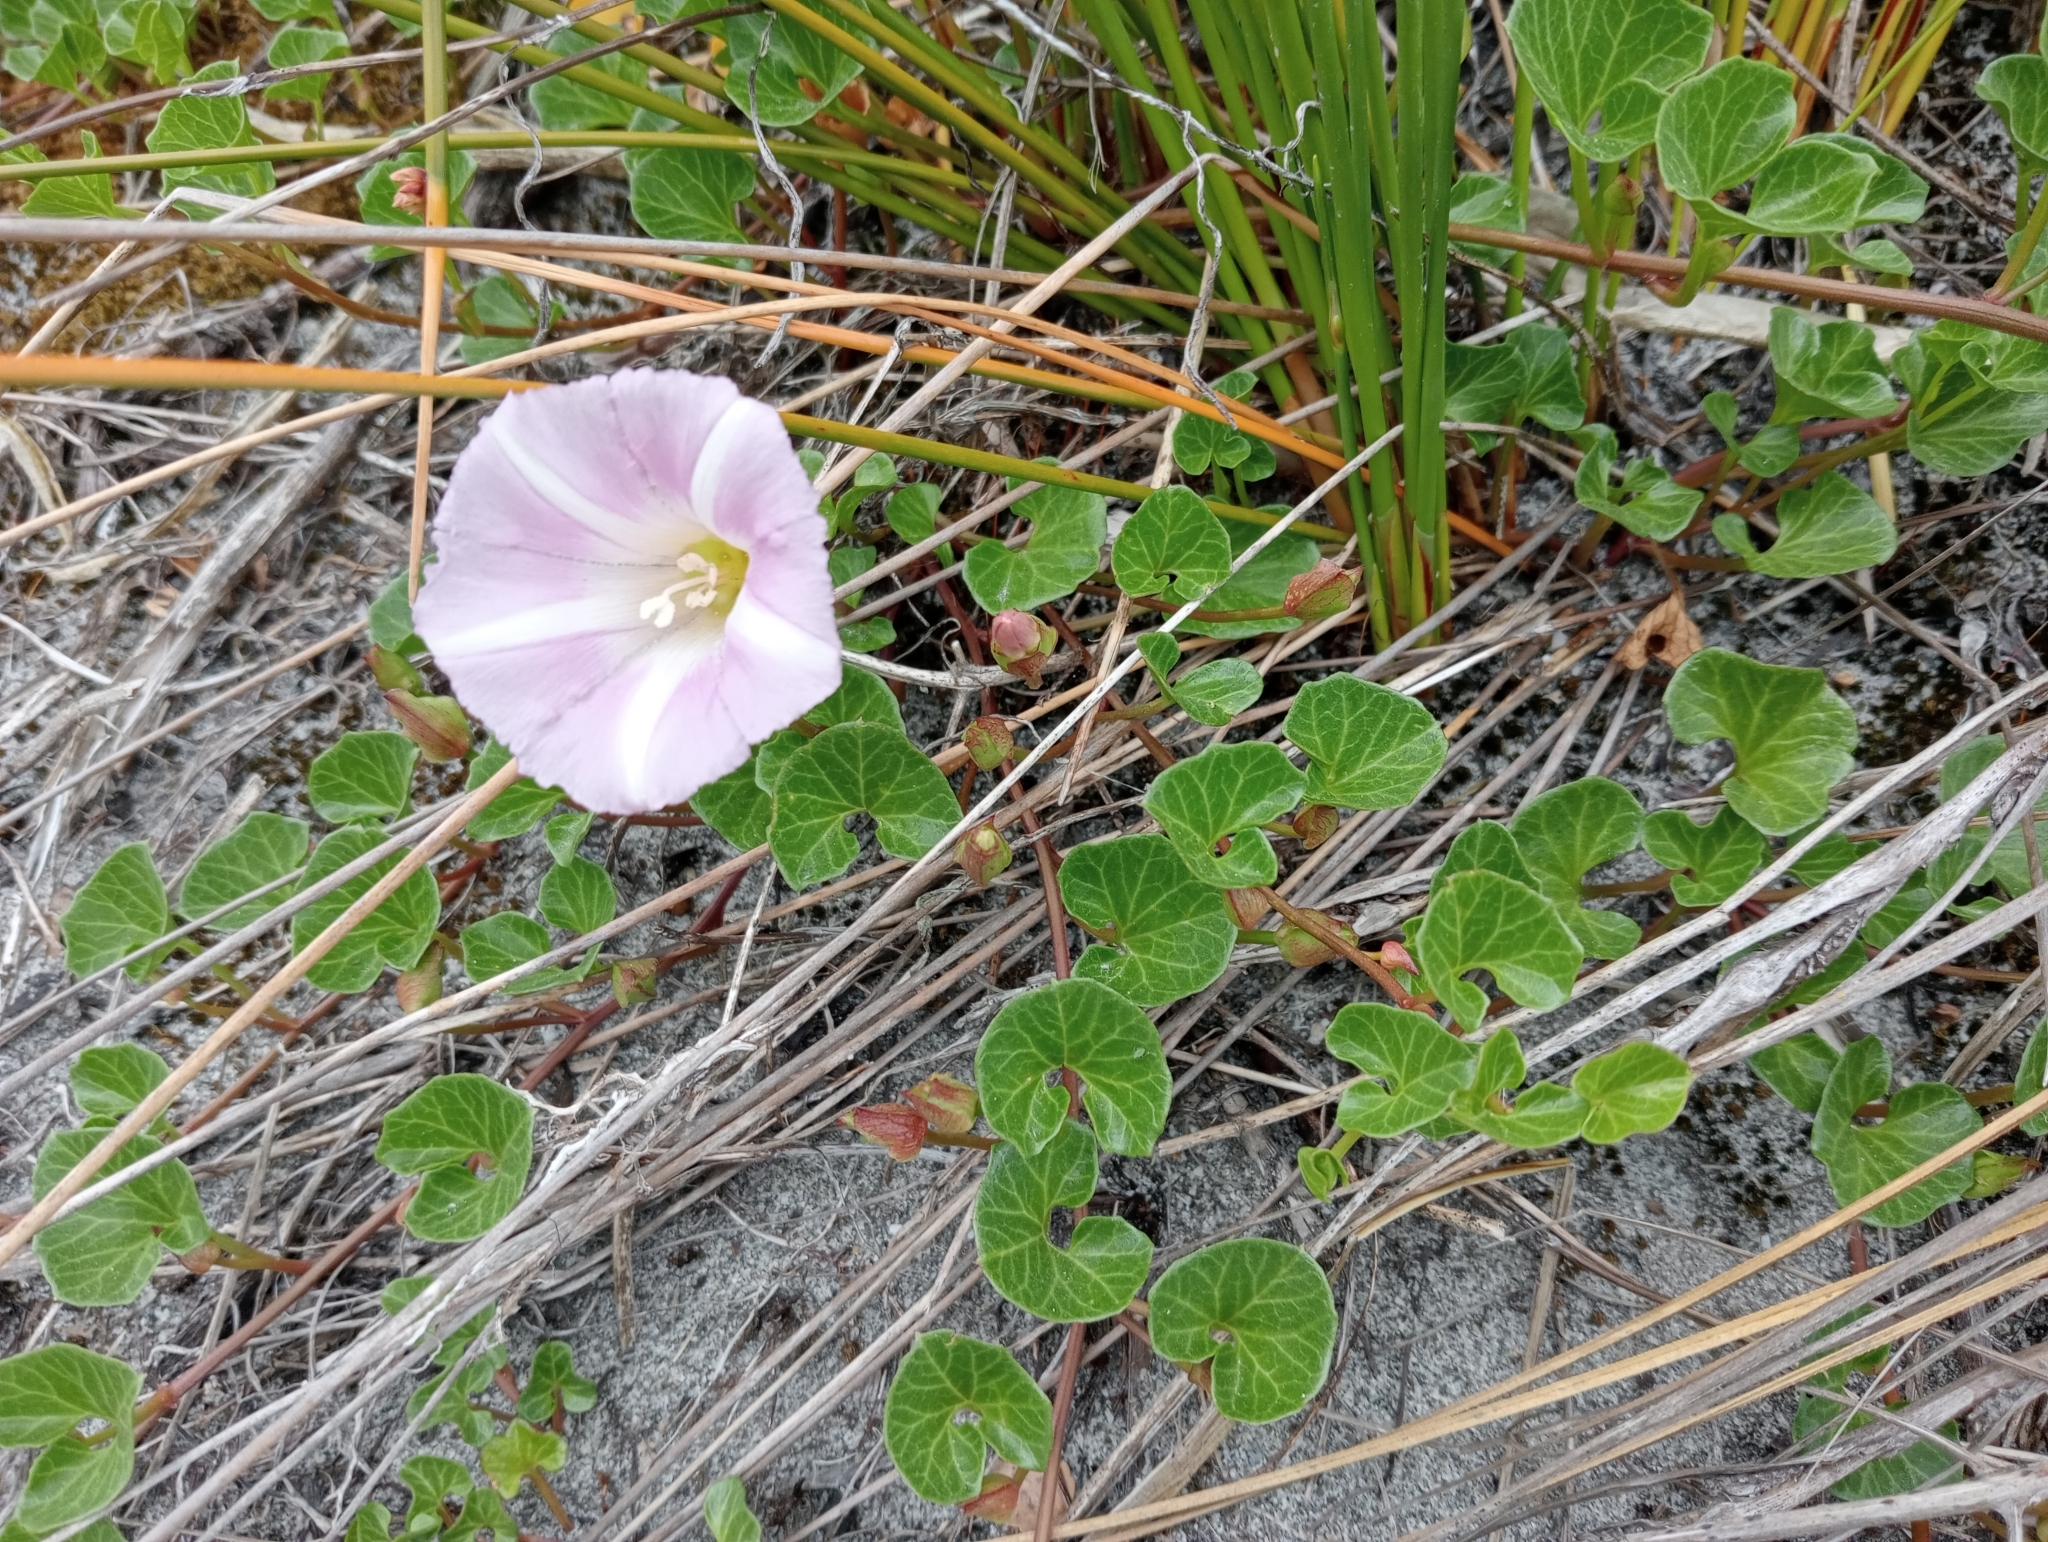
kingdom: Plantae
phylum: Tracheophyta
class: Magnoliopsida
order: Solanales
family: Convolvulaceae
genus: Calystegia
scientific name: Calystegia soldanella
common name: Sea bindweed
